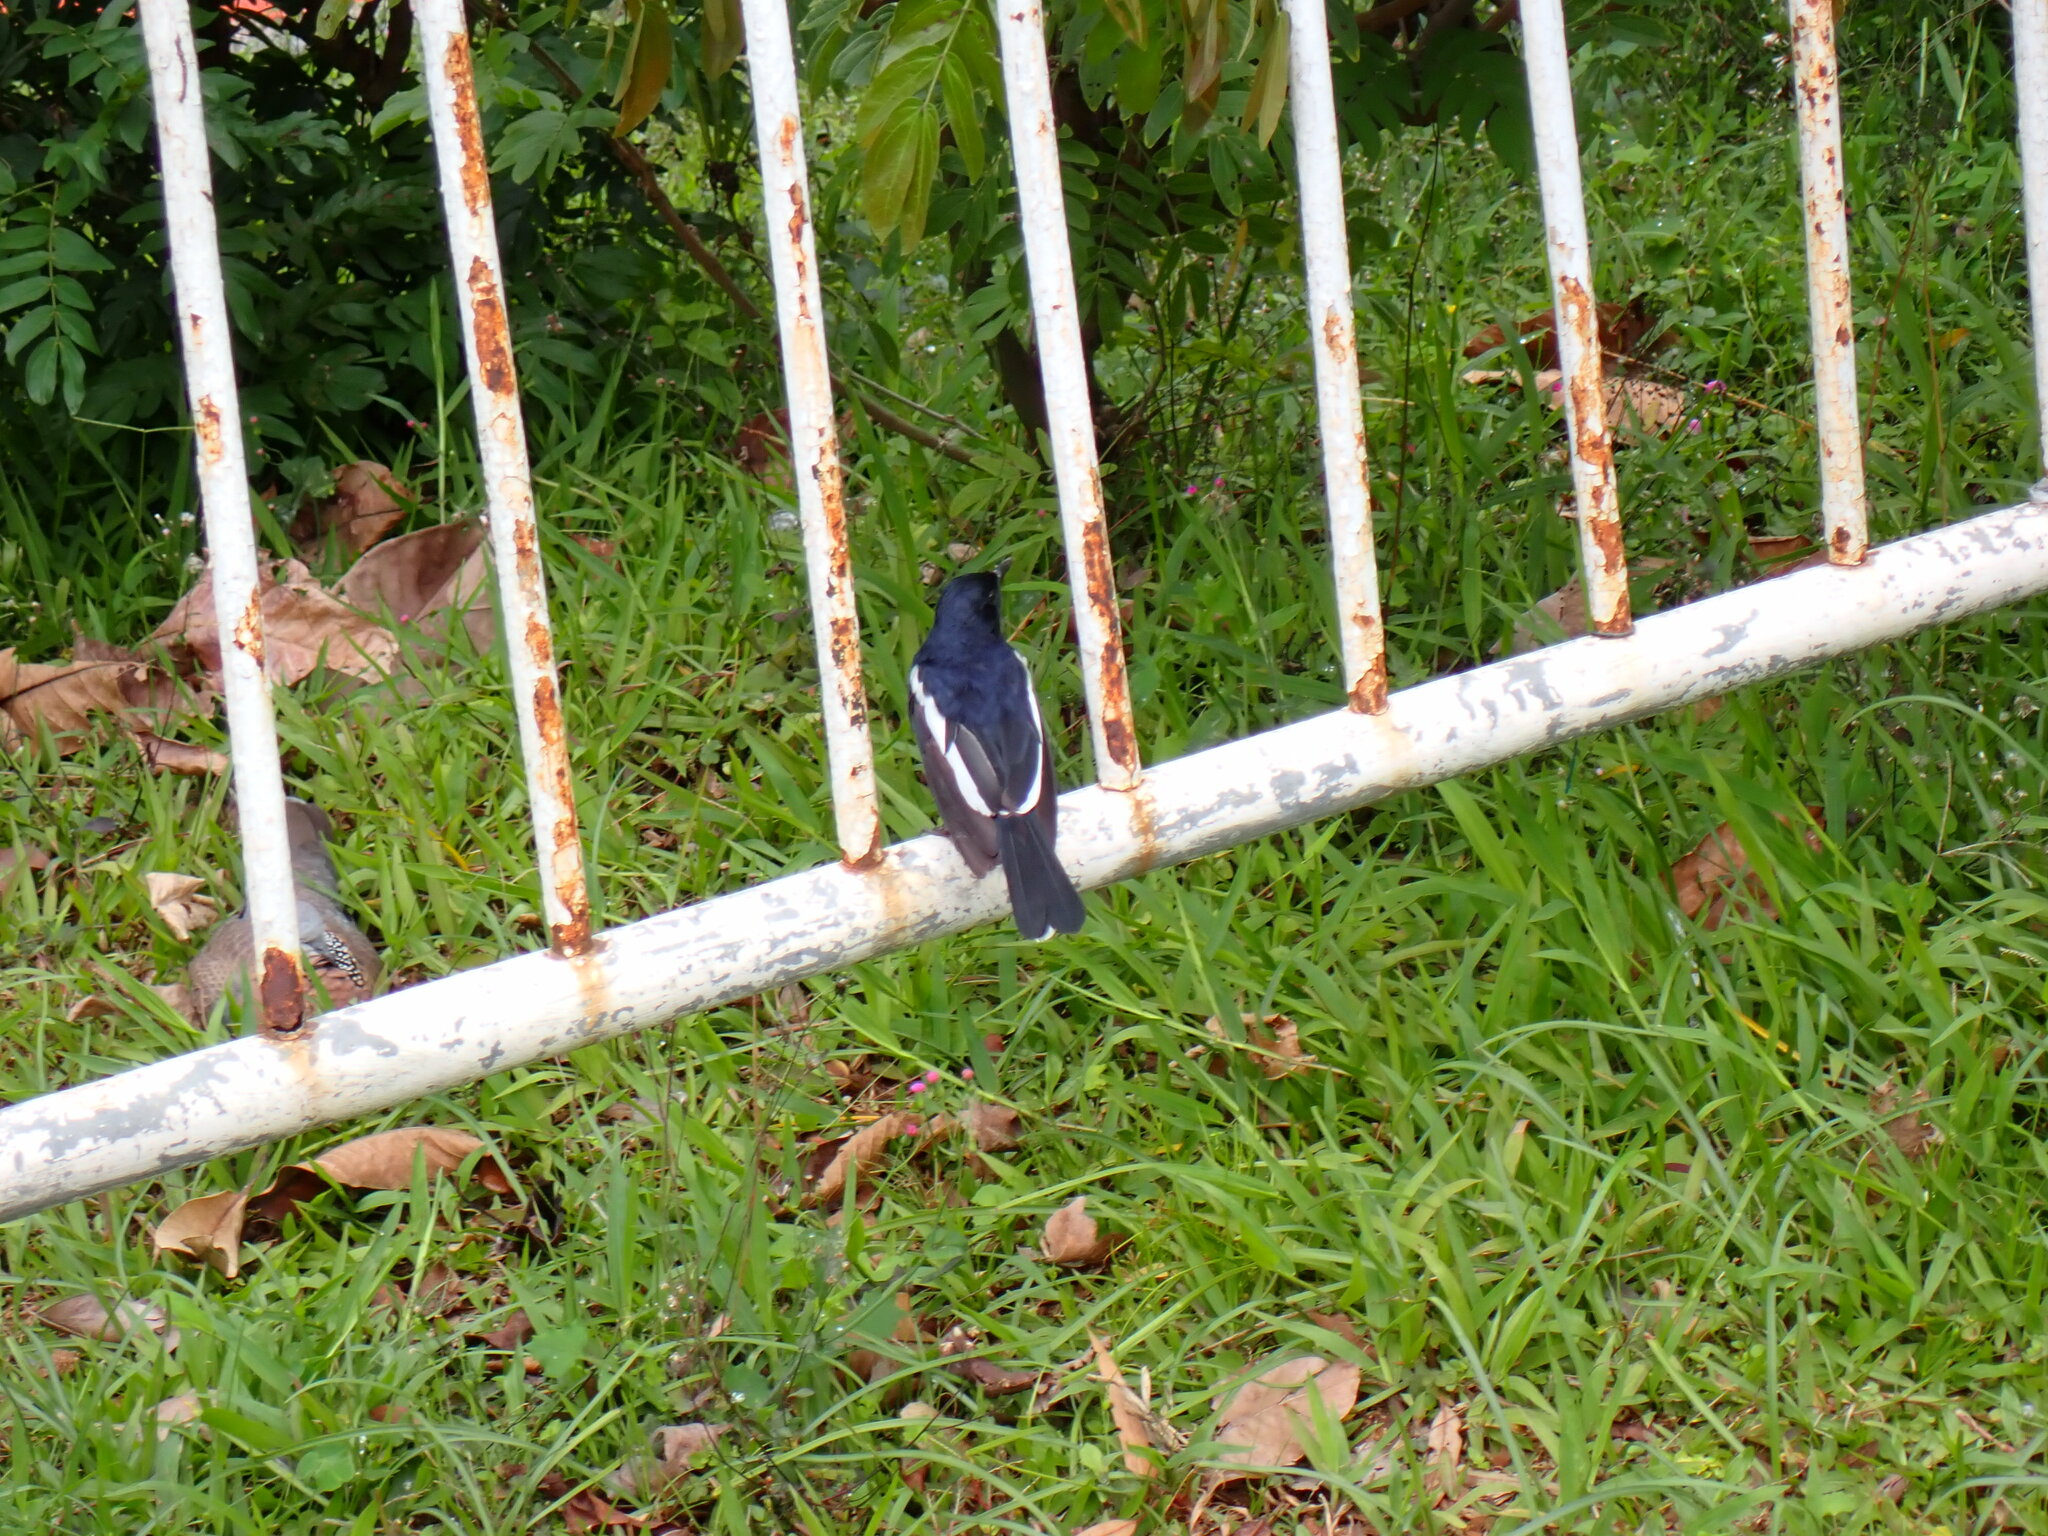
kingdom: Animalia
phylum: Chordata
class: Aves
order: Passeriformes
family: Muscicapidae
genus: Copsychus
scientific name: Copsychus saularis
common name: Oriental magpie-robin
